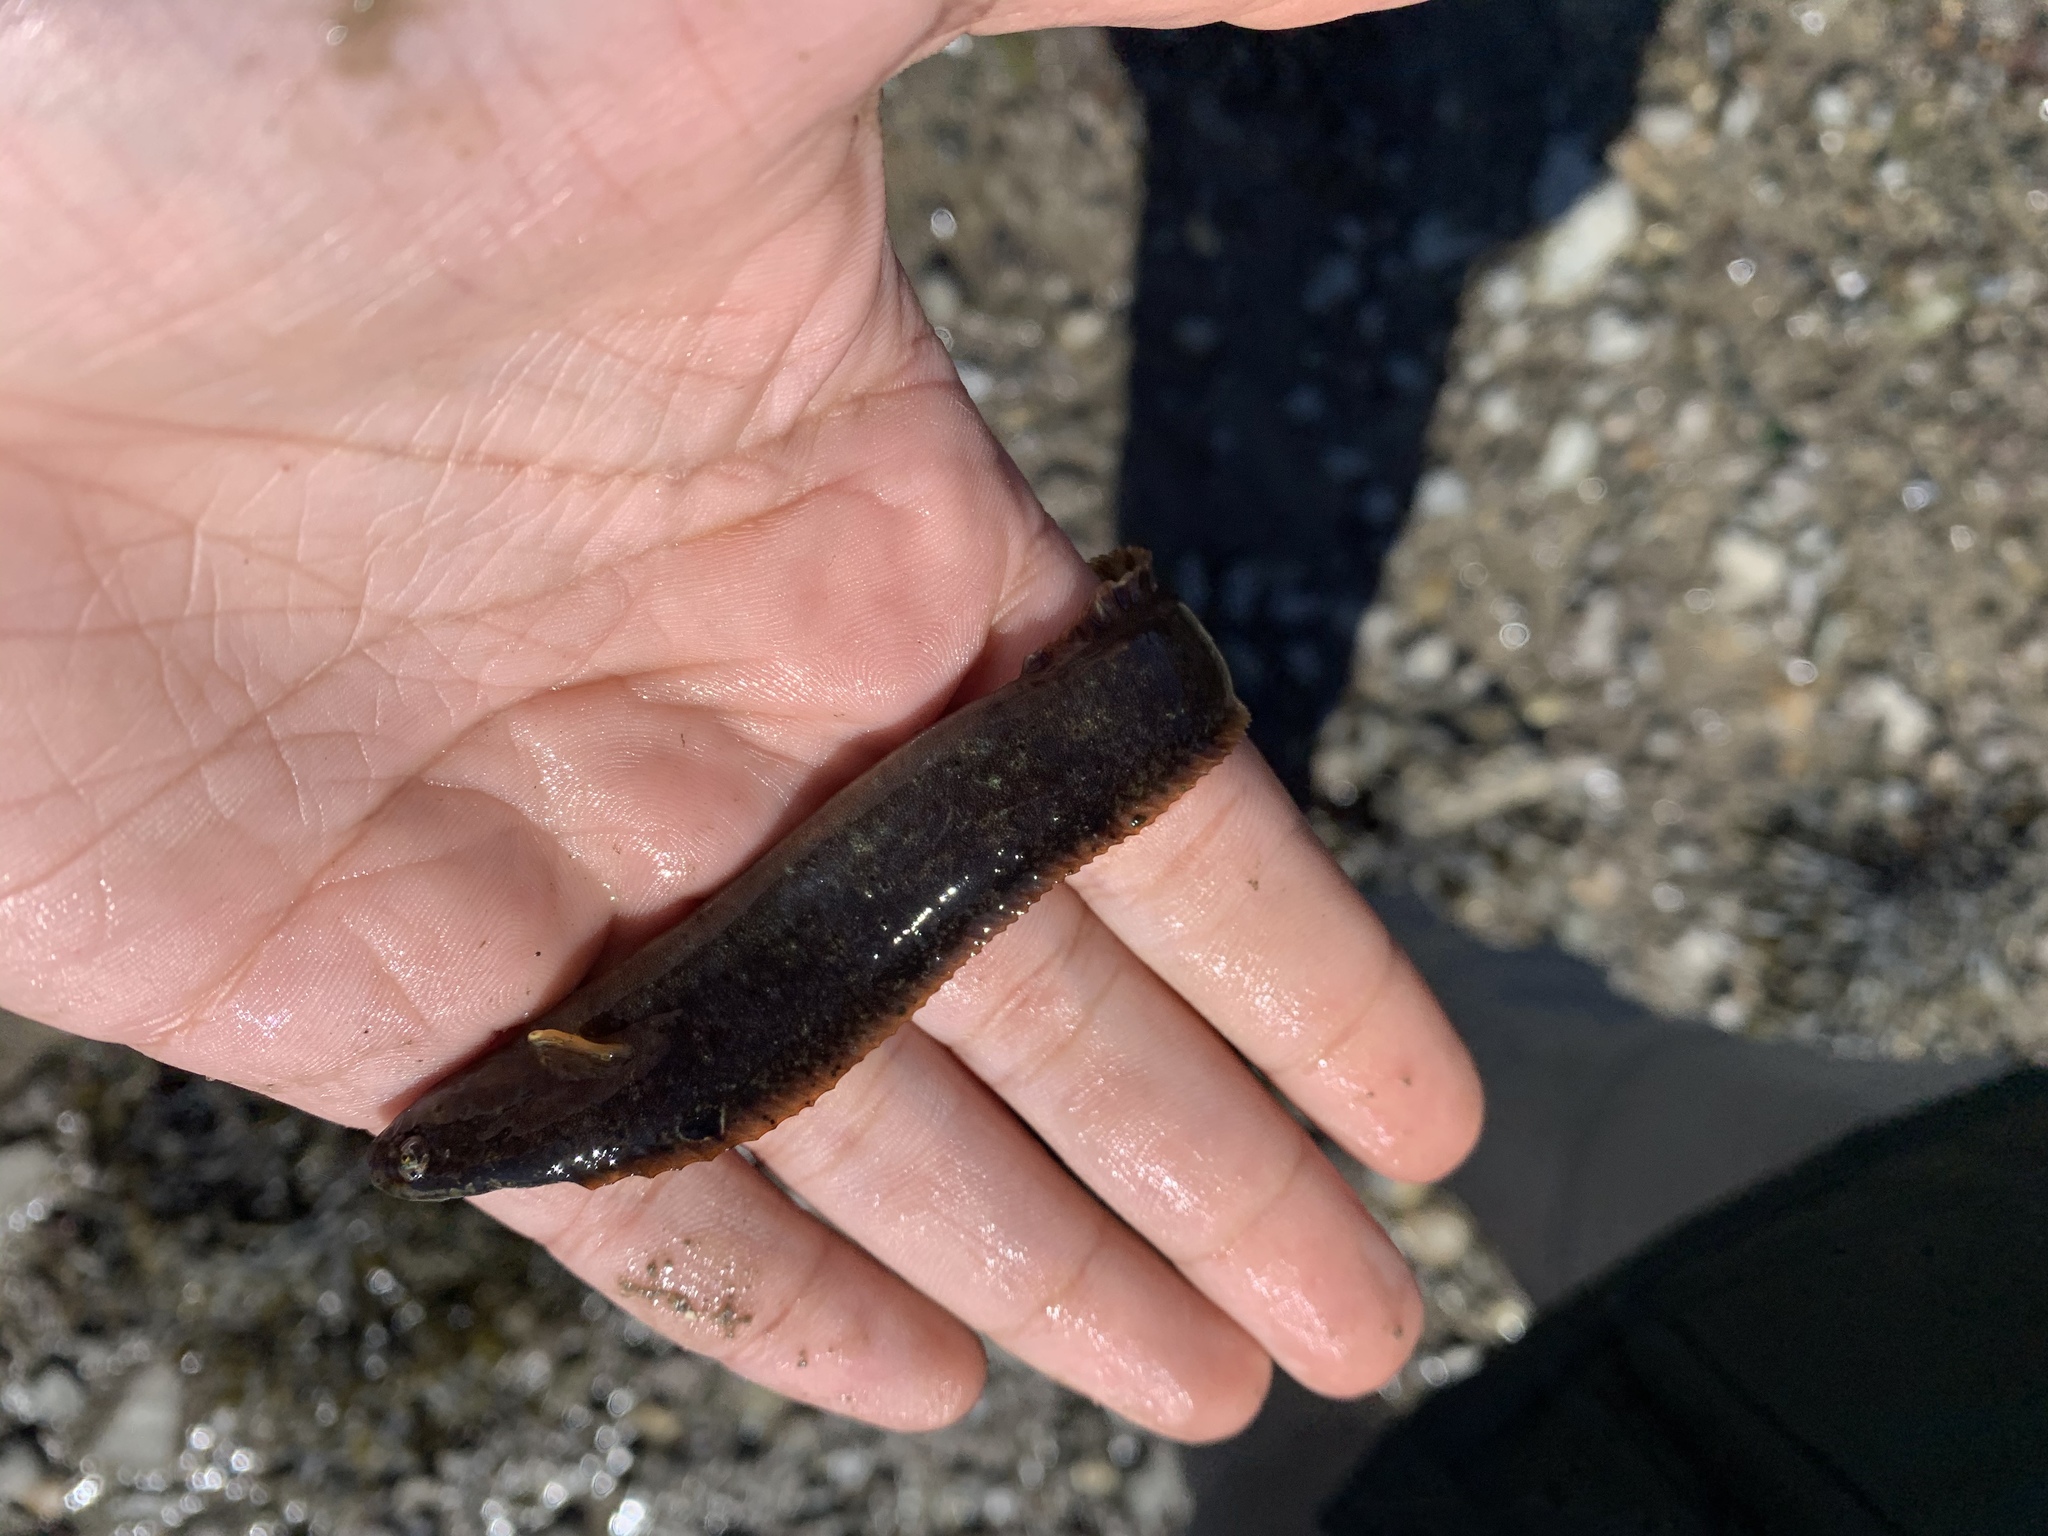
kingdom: Animalia
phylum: Chordata
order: Perciformes
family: Pholidae
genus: Pholis
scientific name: Pholis gunnellus
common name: Butterfish
